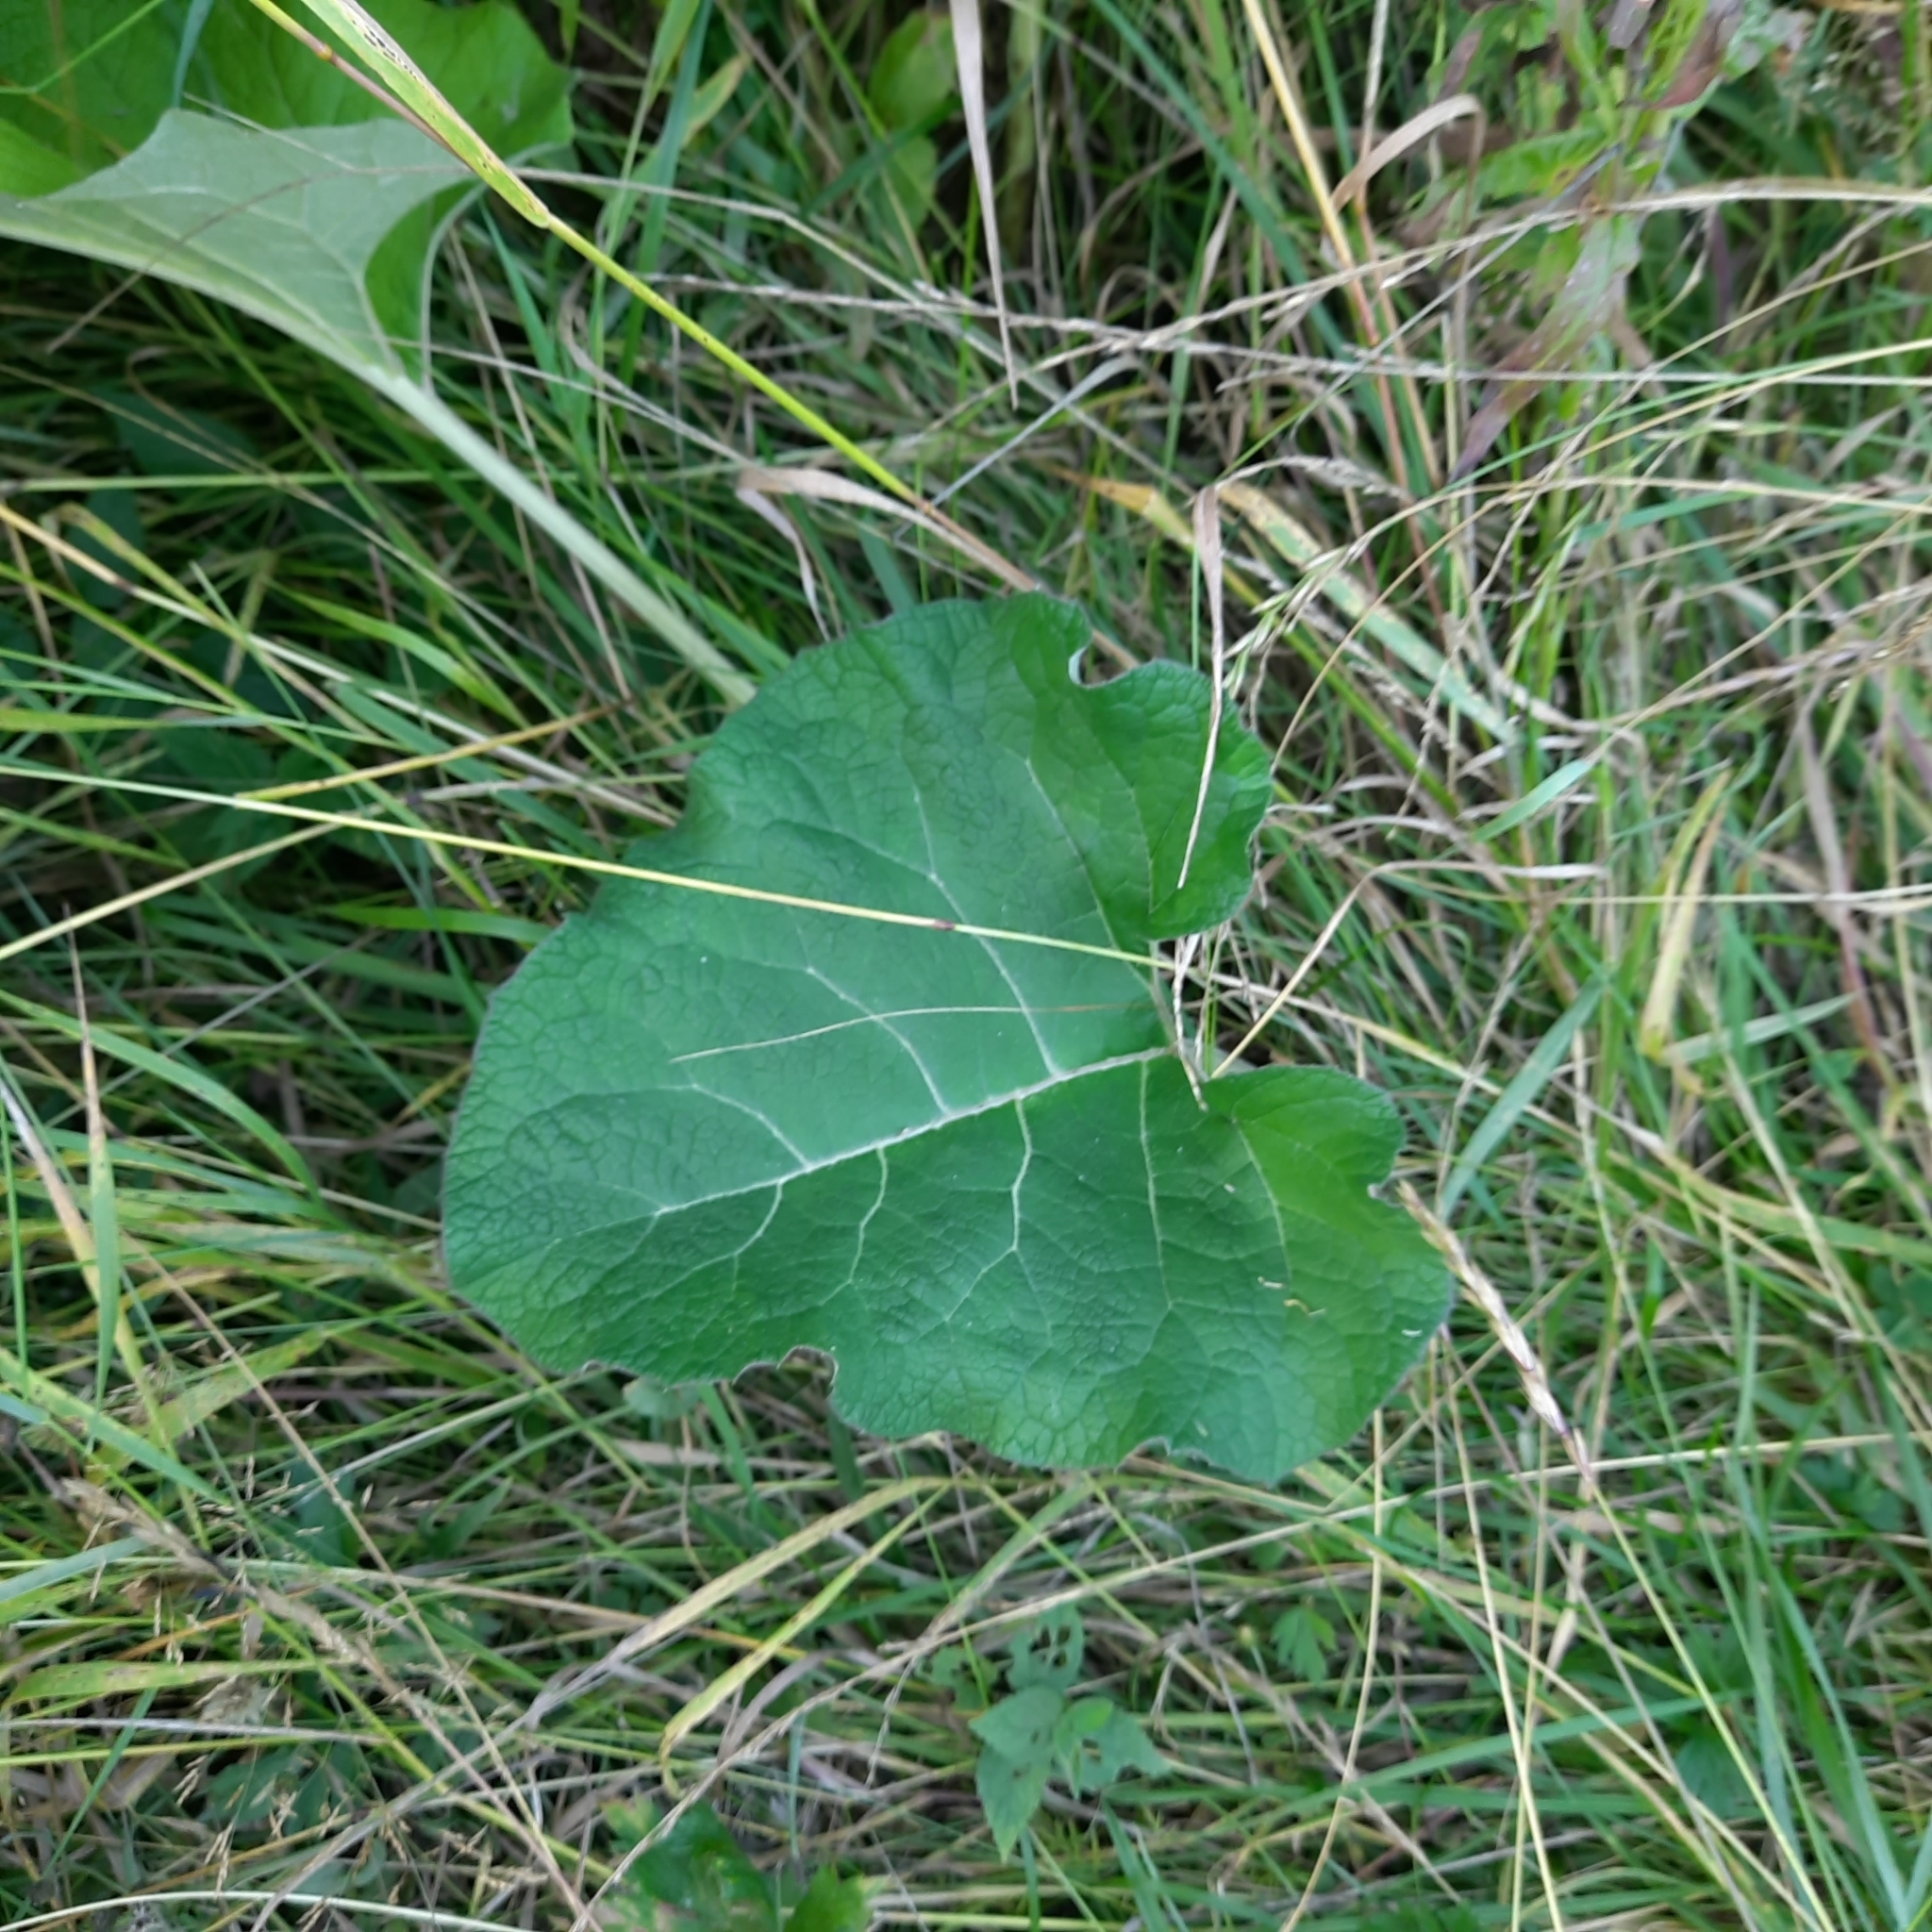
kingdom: Plantae
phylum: Tracheophyta
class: Magnoliopsida
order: Asterales
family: Asteraceae
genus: Arctium
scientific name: Arctium tomentosum
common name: Woolly burdock
